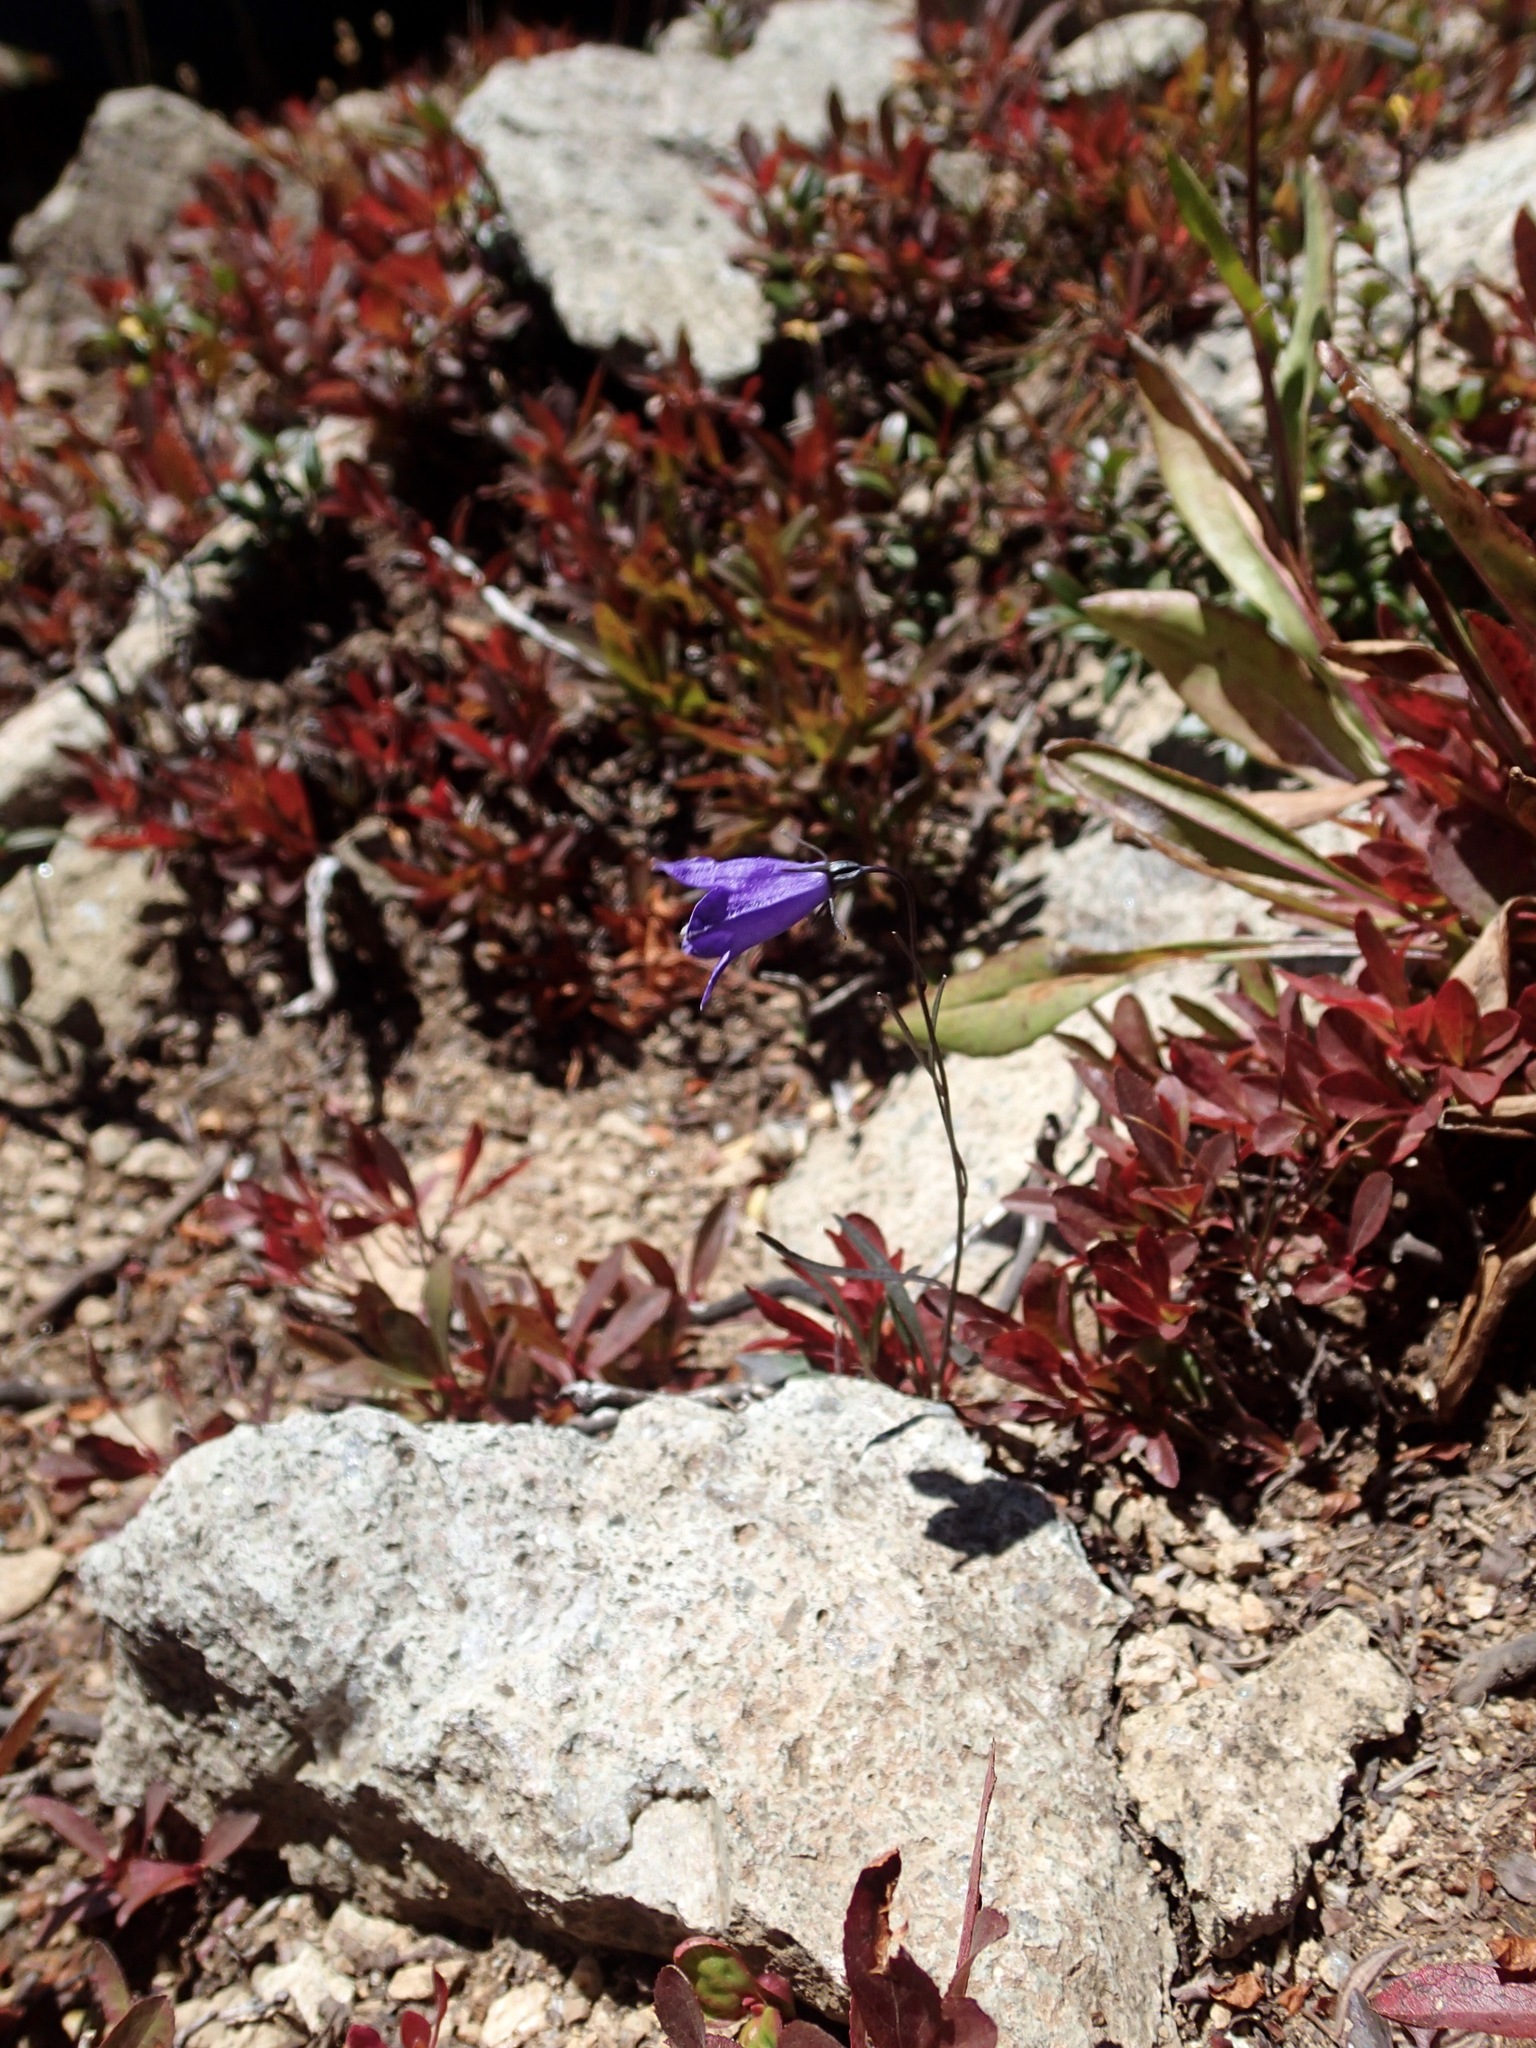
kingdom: Plantae
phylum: Tracheophyta
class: Magnoliopsida
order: Asterales
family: Campanulaceae
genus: Campanula
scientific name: Campanula petiolata
